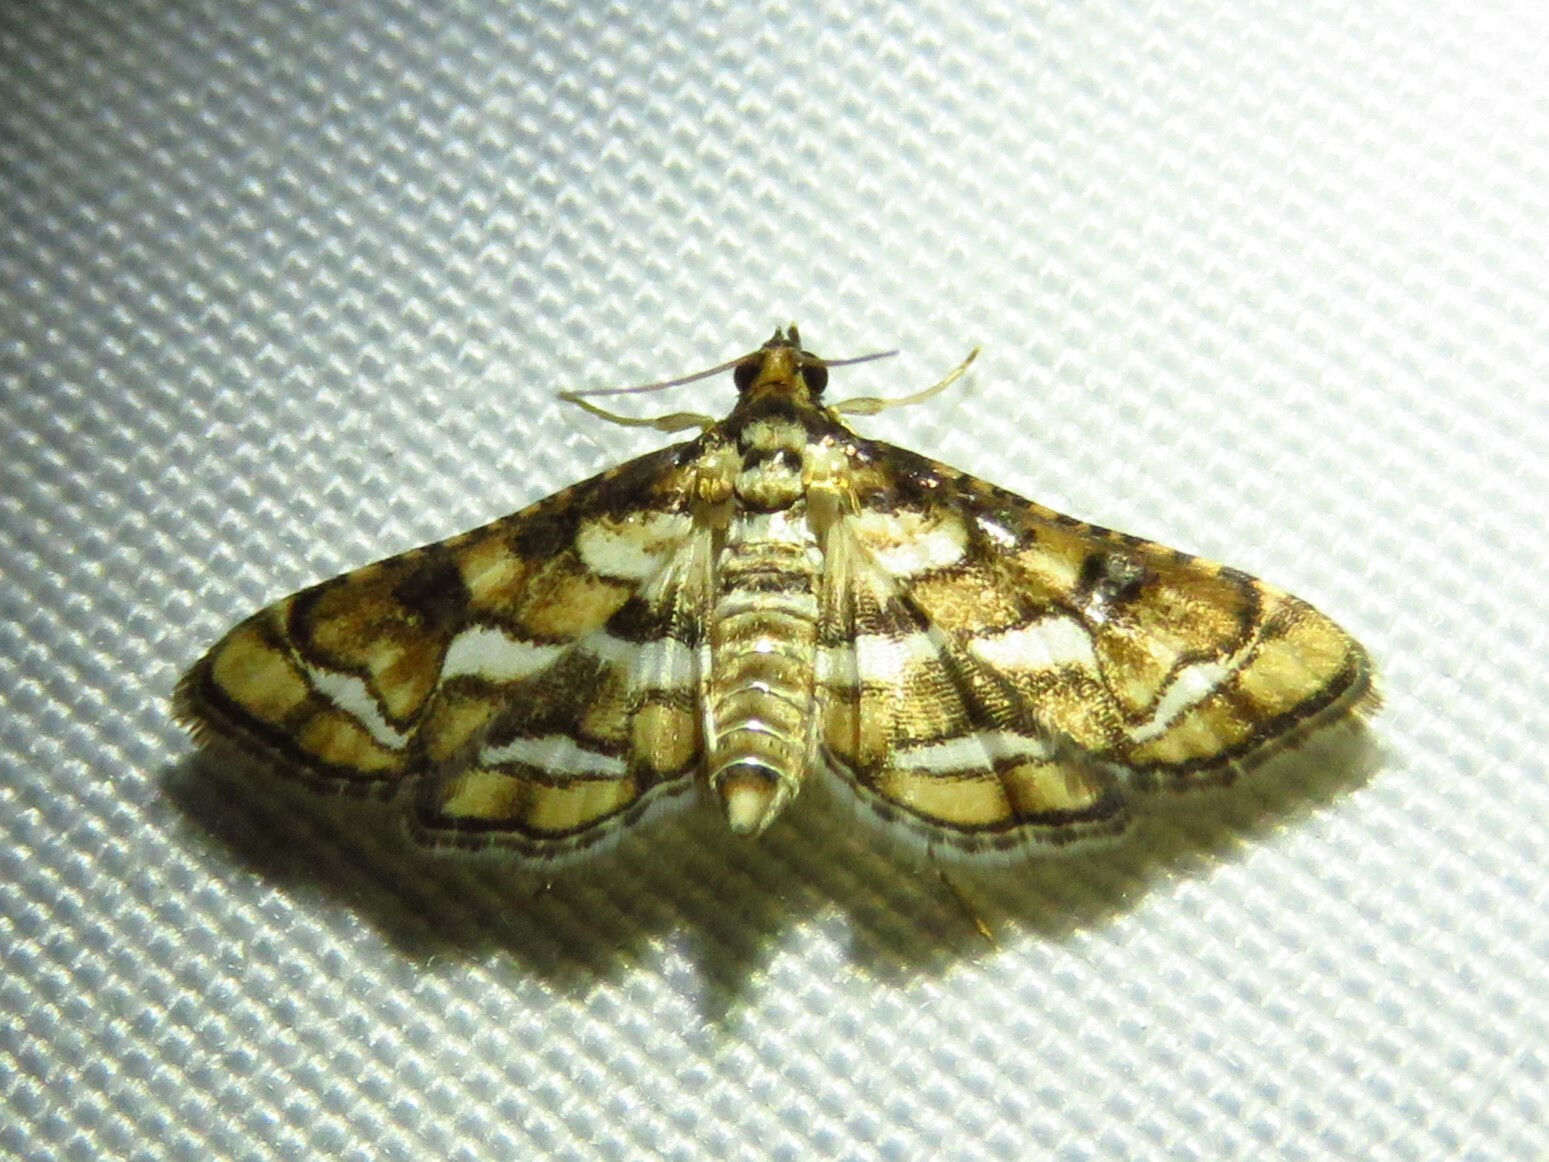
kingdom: Animalia
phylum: Arthropoda
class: Insecta
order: Lepidoptera
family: Crambidae
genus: Hileithia
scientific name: Hileithia magualis
